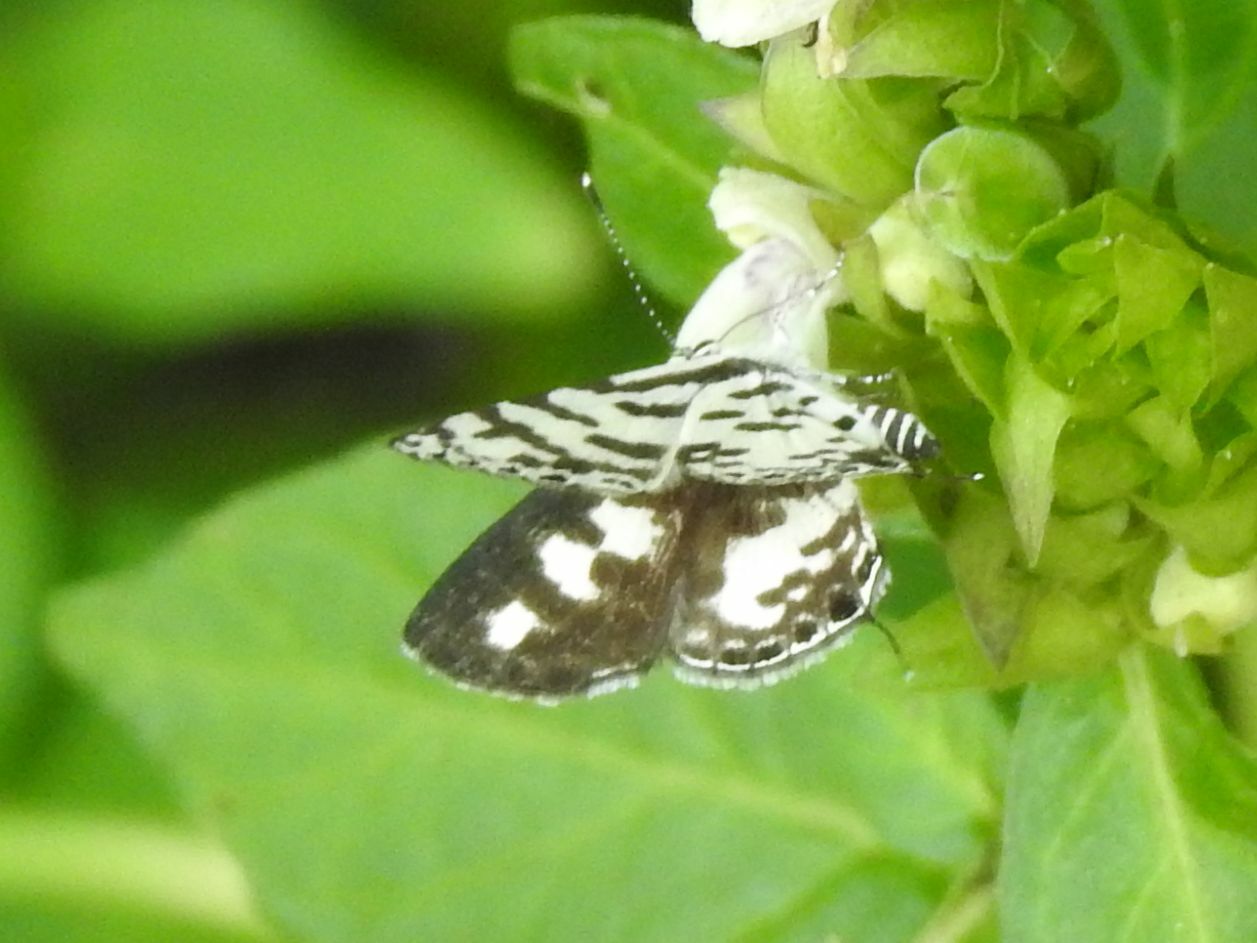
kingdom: Animalia
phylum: Arthropoda
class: Insecta
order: Lepidoptera
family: Lycaenidae
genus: Castalius
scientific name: Castalius melaena
